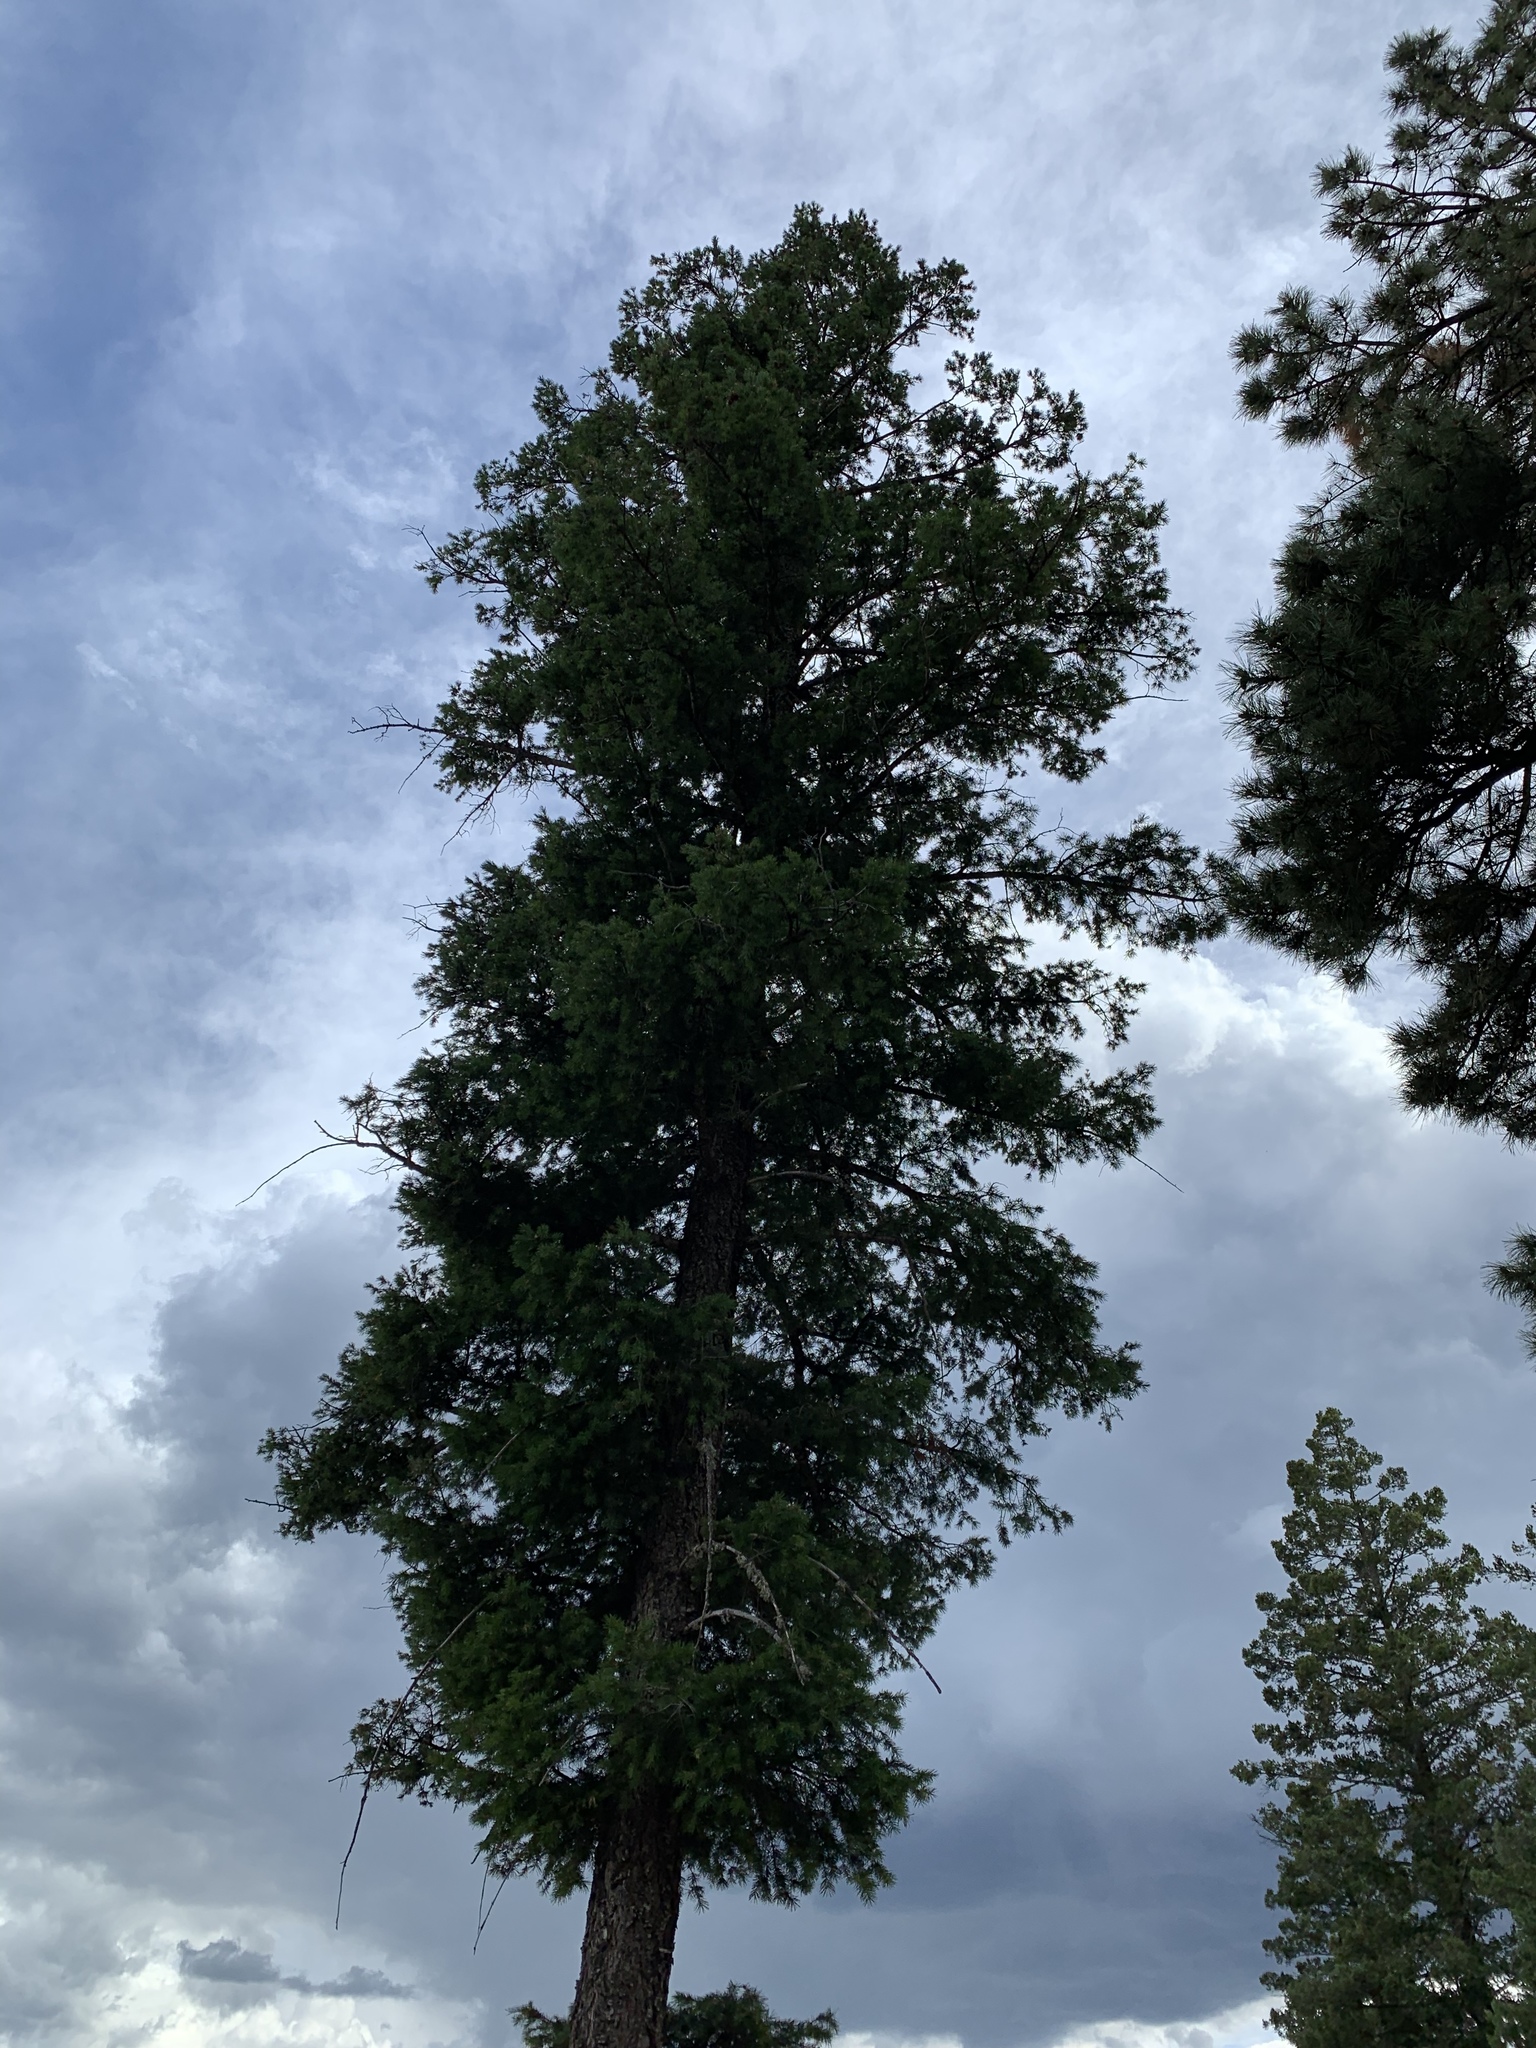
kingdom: Plantae
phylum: Tracheophyta
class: Pinopsida
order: Pinales
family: Pinaceae
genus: Pseudotsuga
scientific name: Pseudotsuga menziesii
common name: Douglas fir
